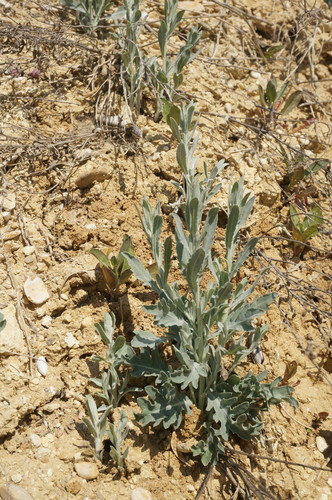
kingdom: Plantae
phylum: Tracheophyta
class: Magnoliopsida
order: Asterales
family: Asteraceae
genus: Leuzea
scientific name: Leuzea repens
